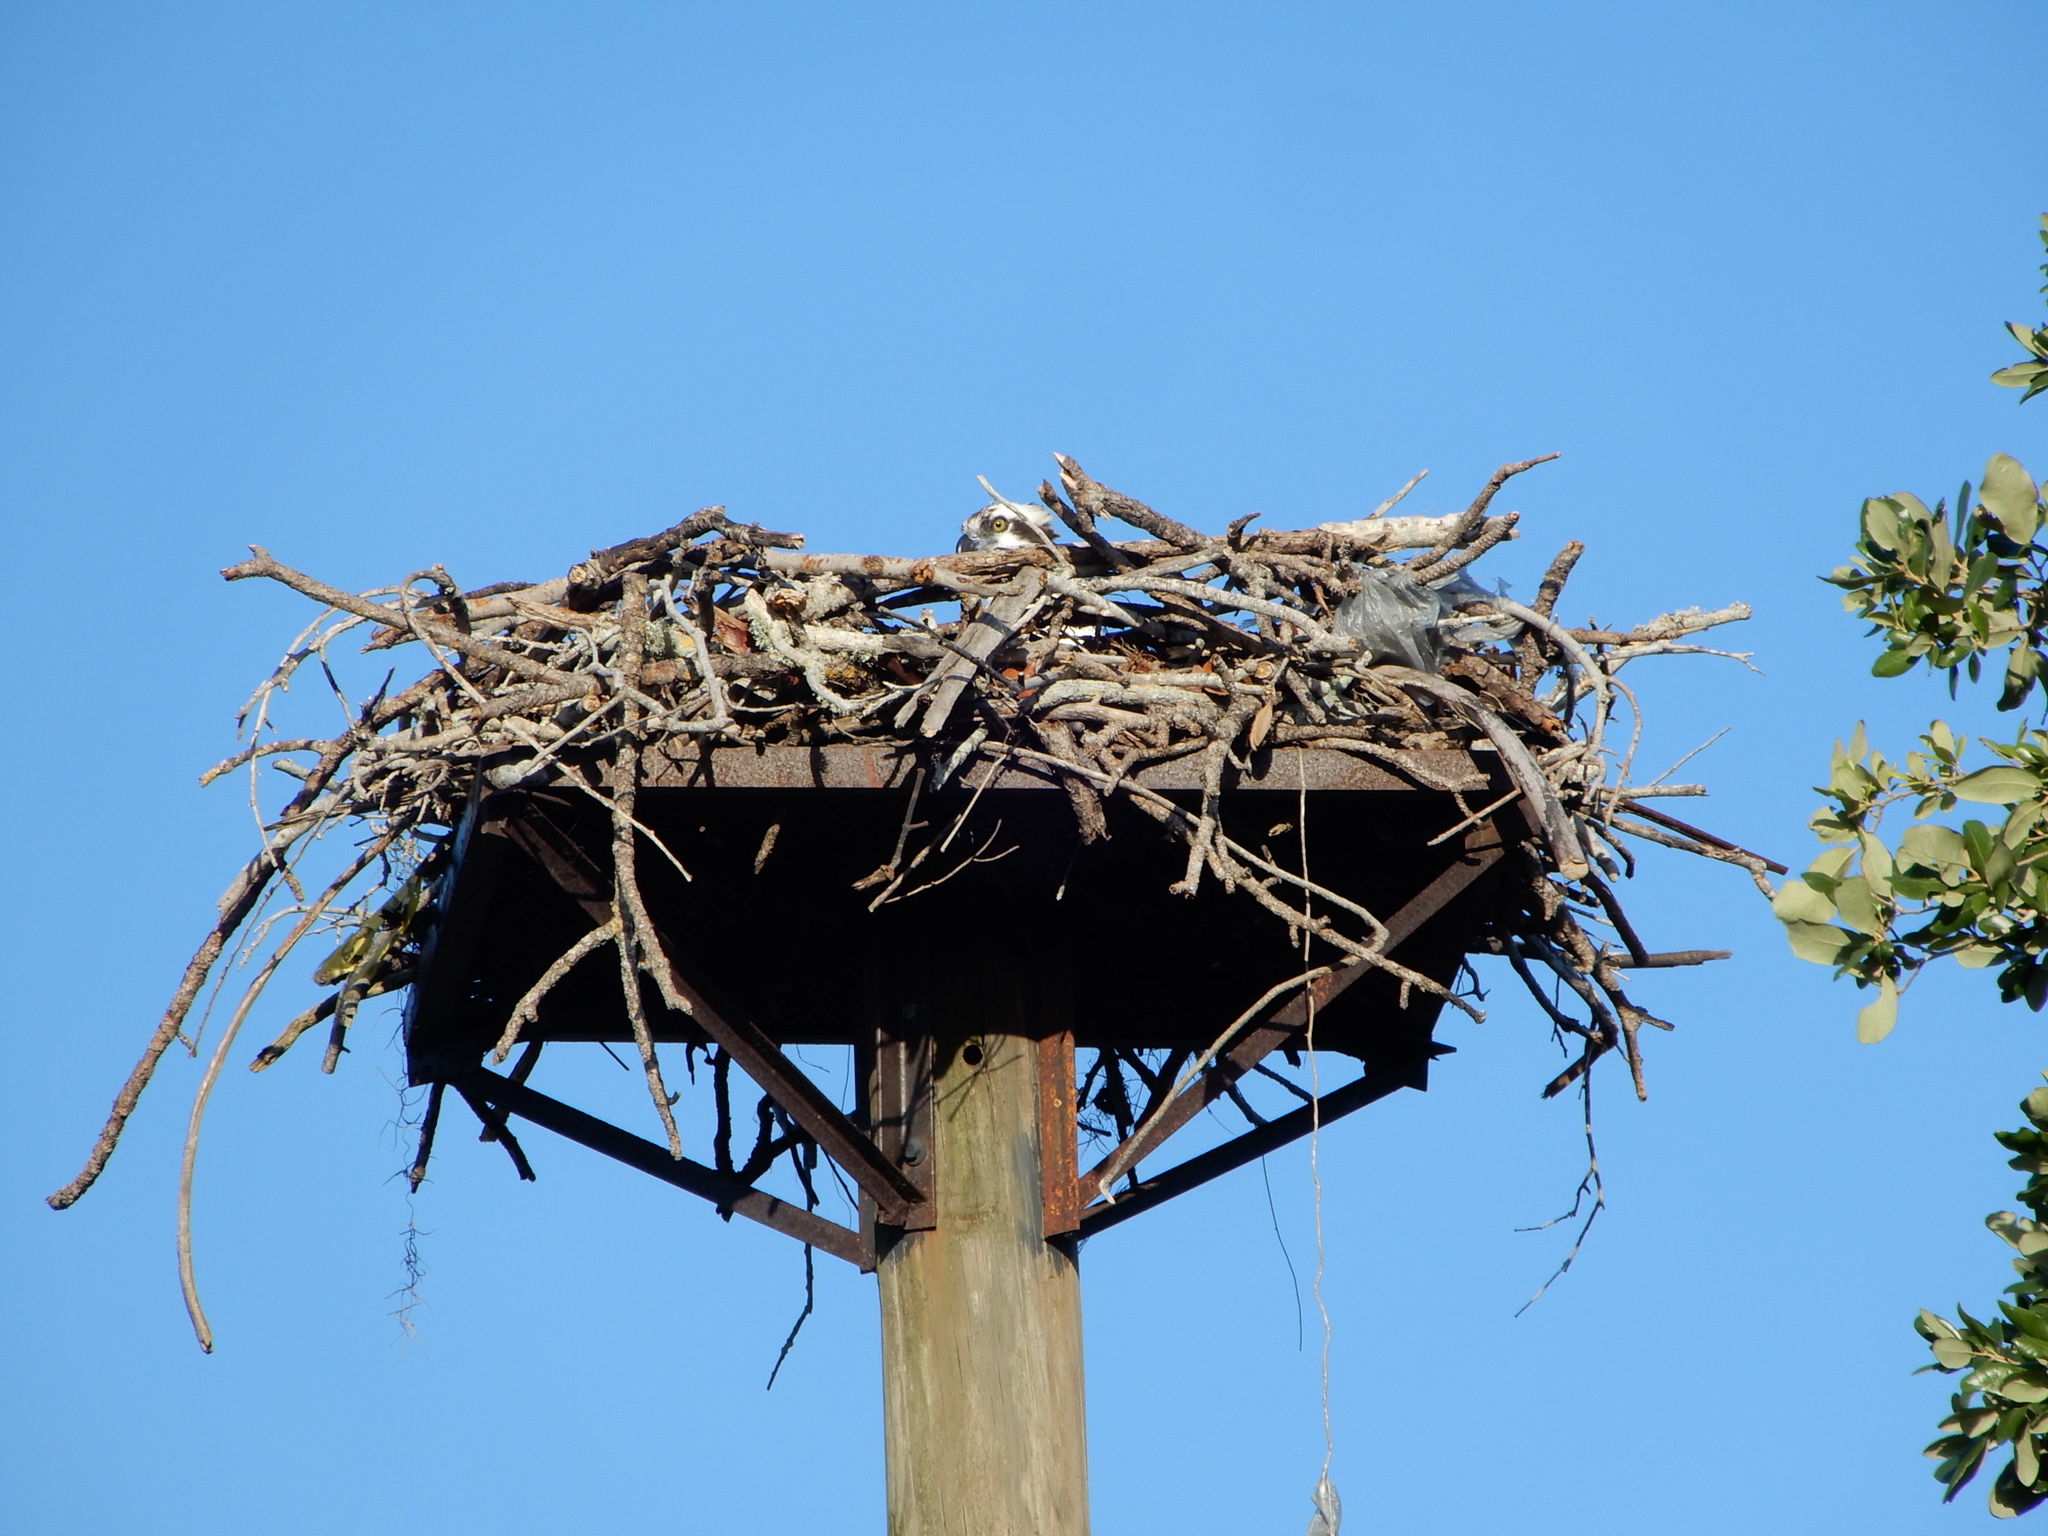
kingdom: Animalia
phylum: Chordata
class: Aves
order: Accipitriformes
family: Pandionidae
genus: Pandion
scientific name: Pandion haliaetus
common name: Osprey
